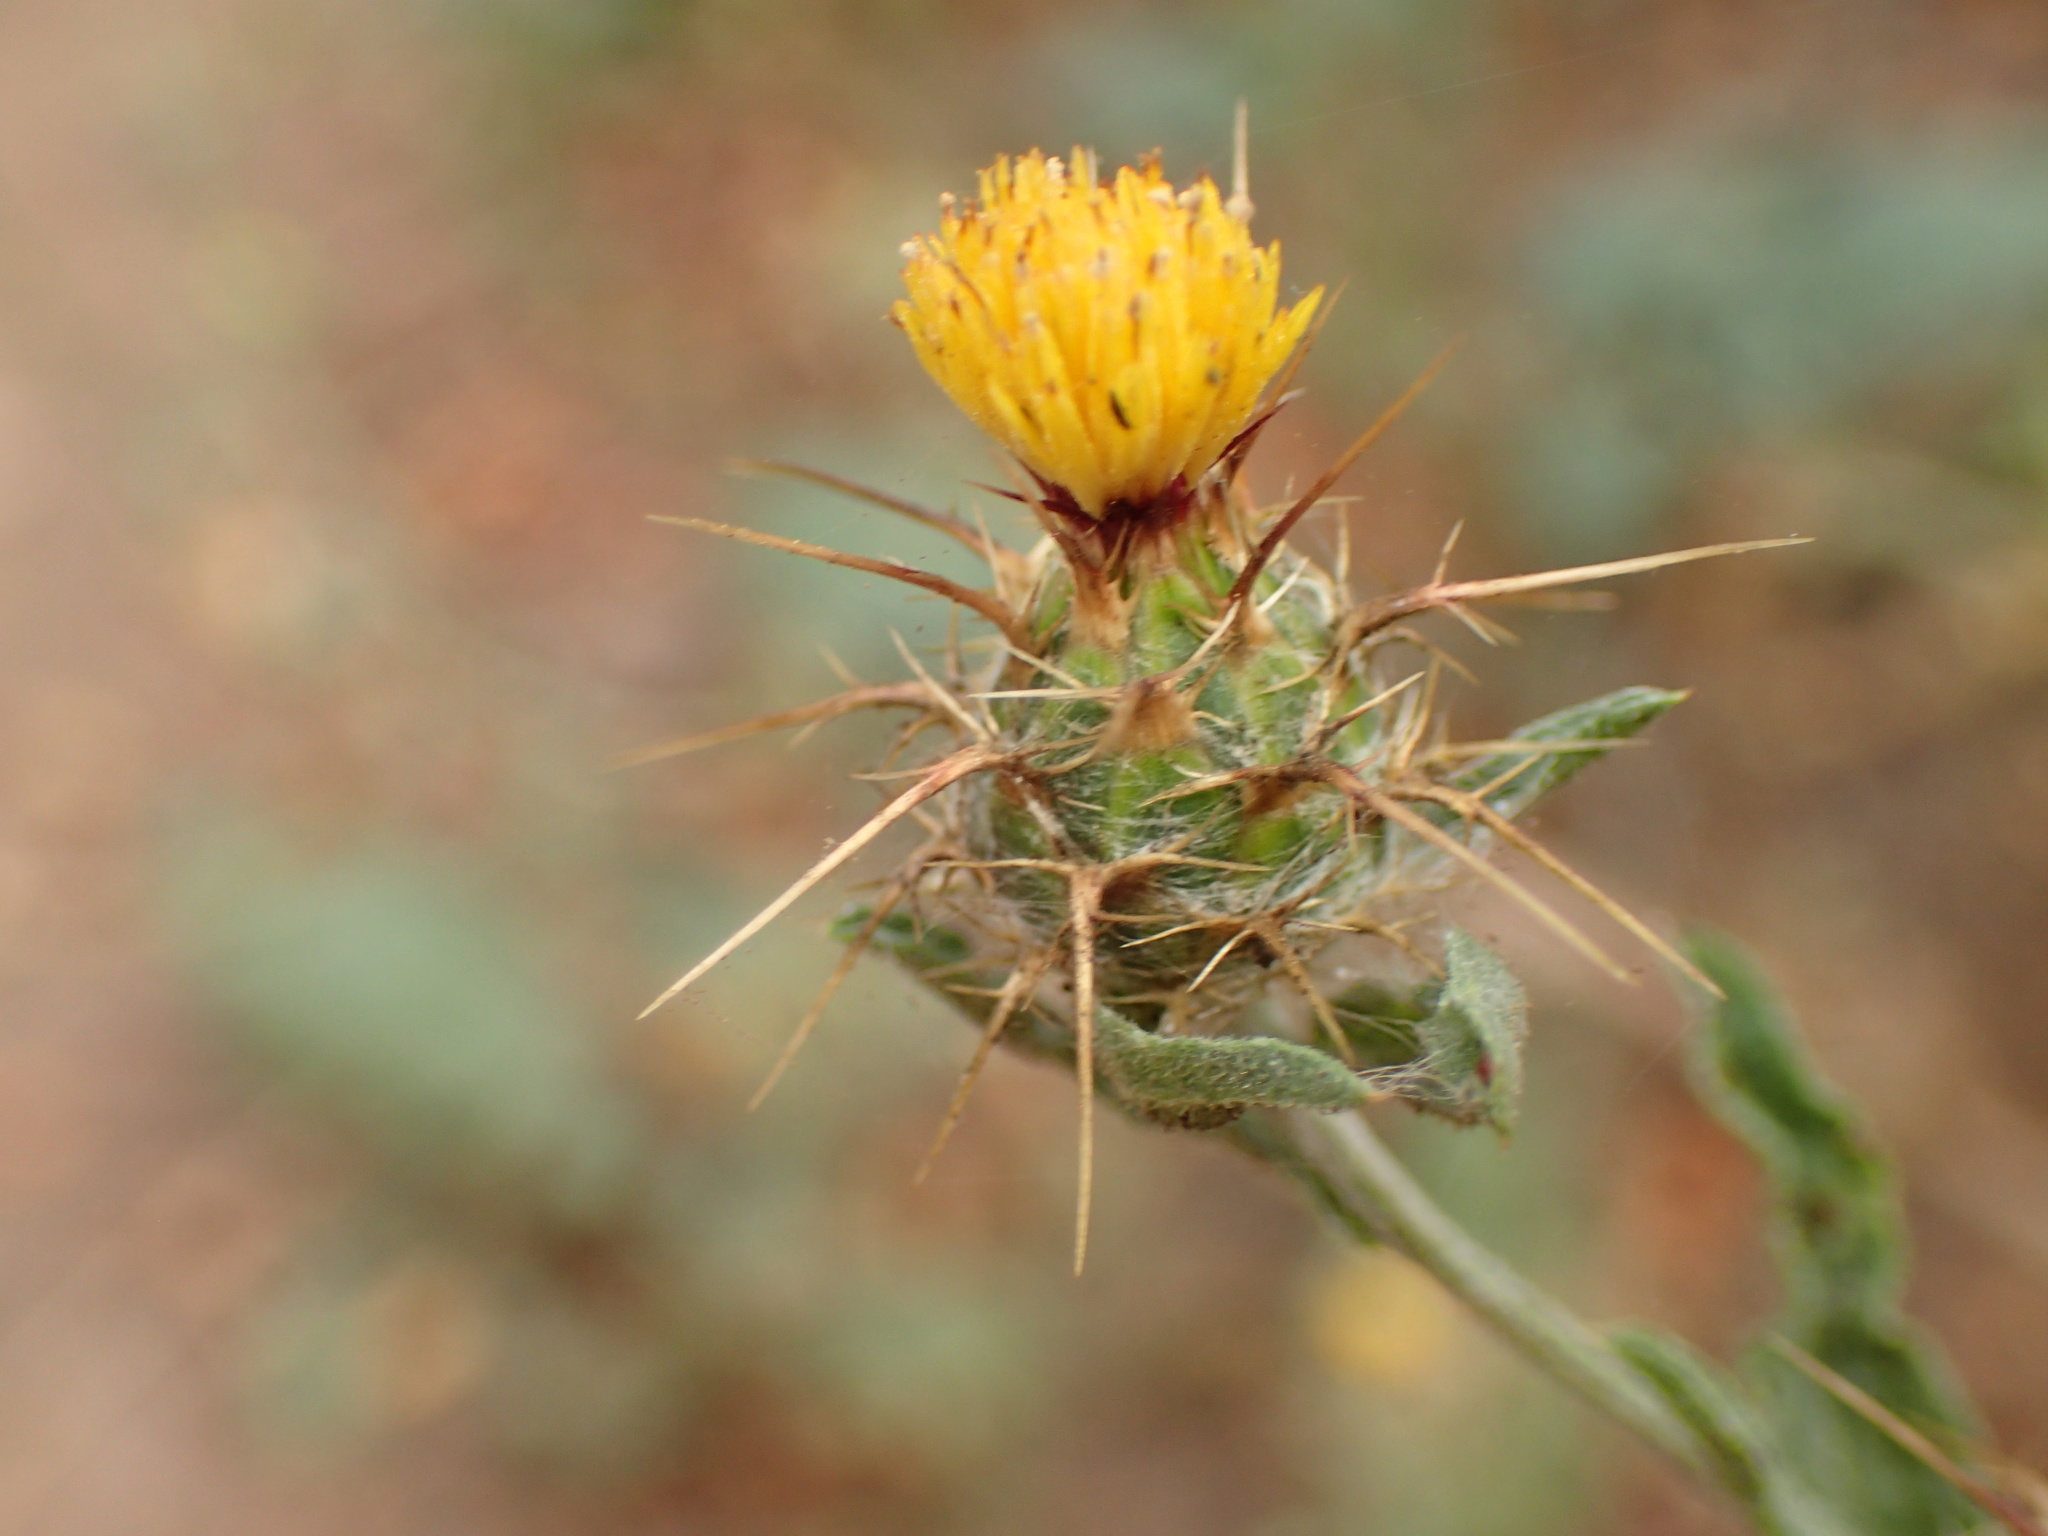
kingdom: Plantae
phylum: Tracheophyta
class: Magnoliopsida
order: Asterales
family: Asteraceae
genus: Centaurea
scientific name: Centaurea melitensis
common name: Maltese star-thistle
